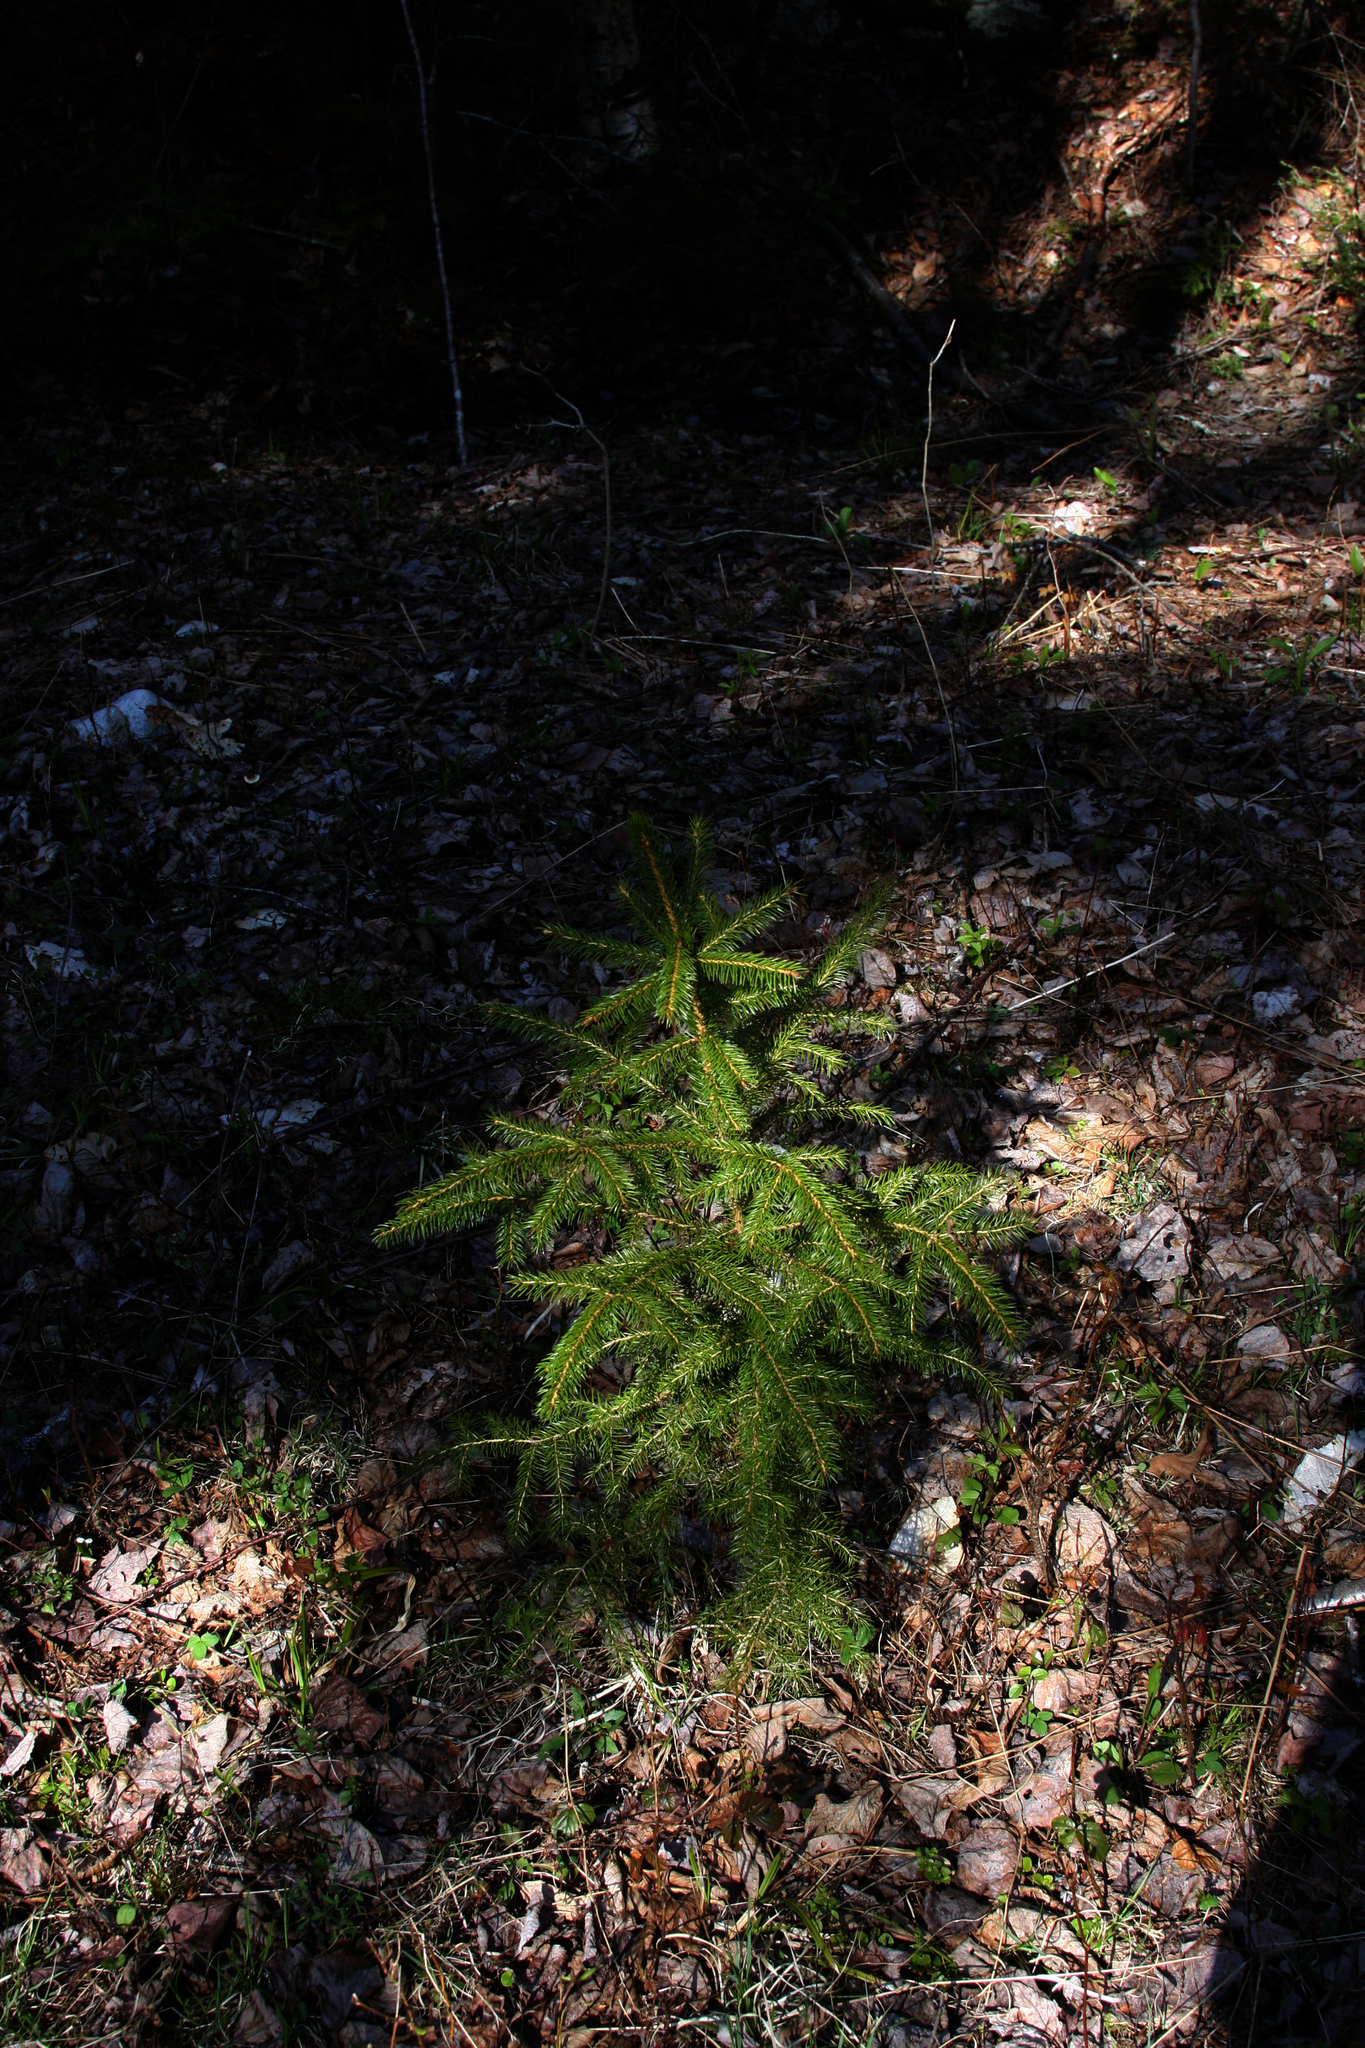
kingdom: Plantae
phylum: Tracheophyta
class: Pinopsida
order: Pinales
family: Pinaceae
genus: Picea
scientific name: Picea rubens
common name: Red spruce
